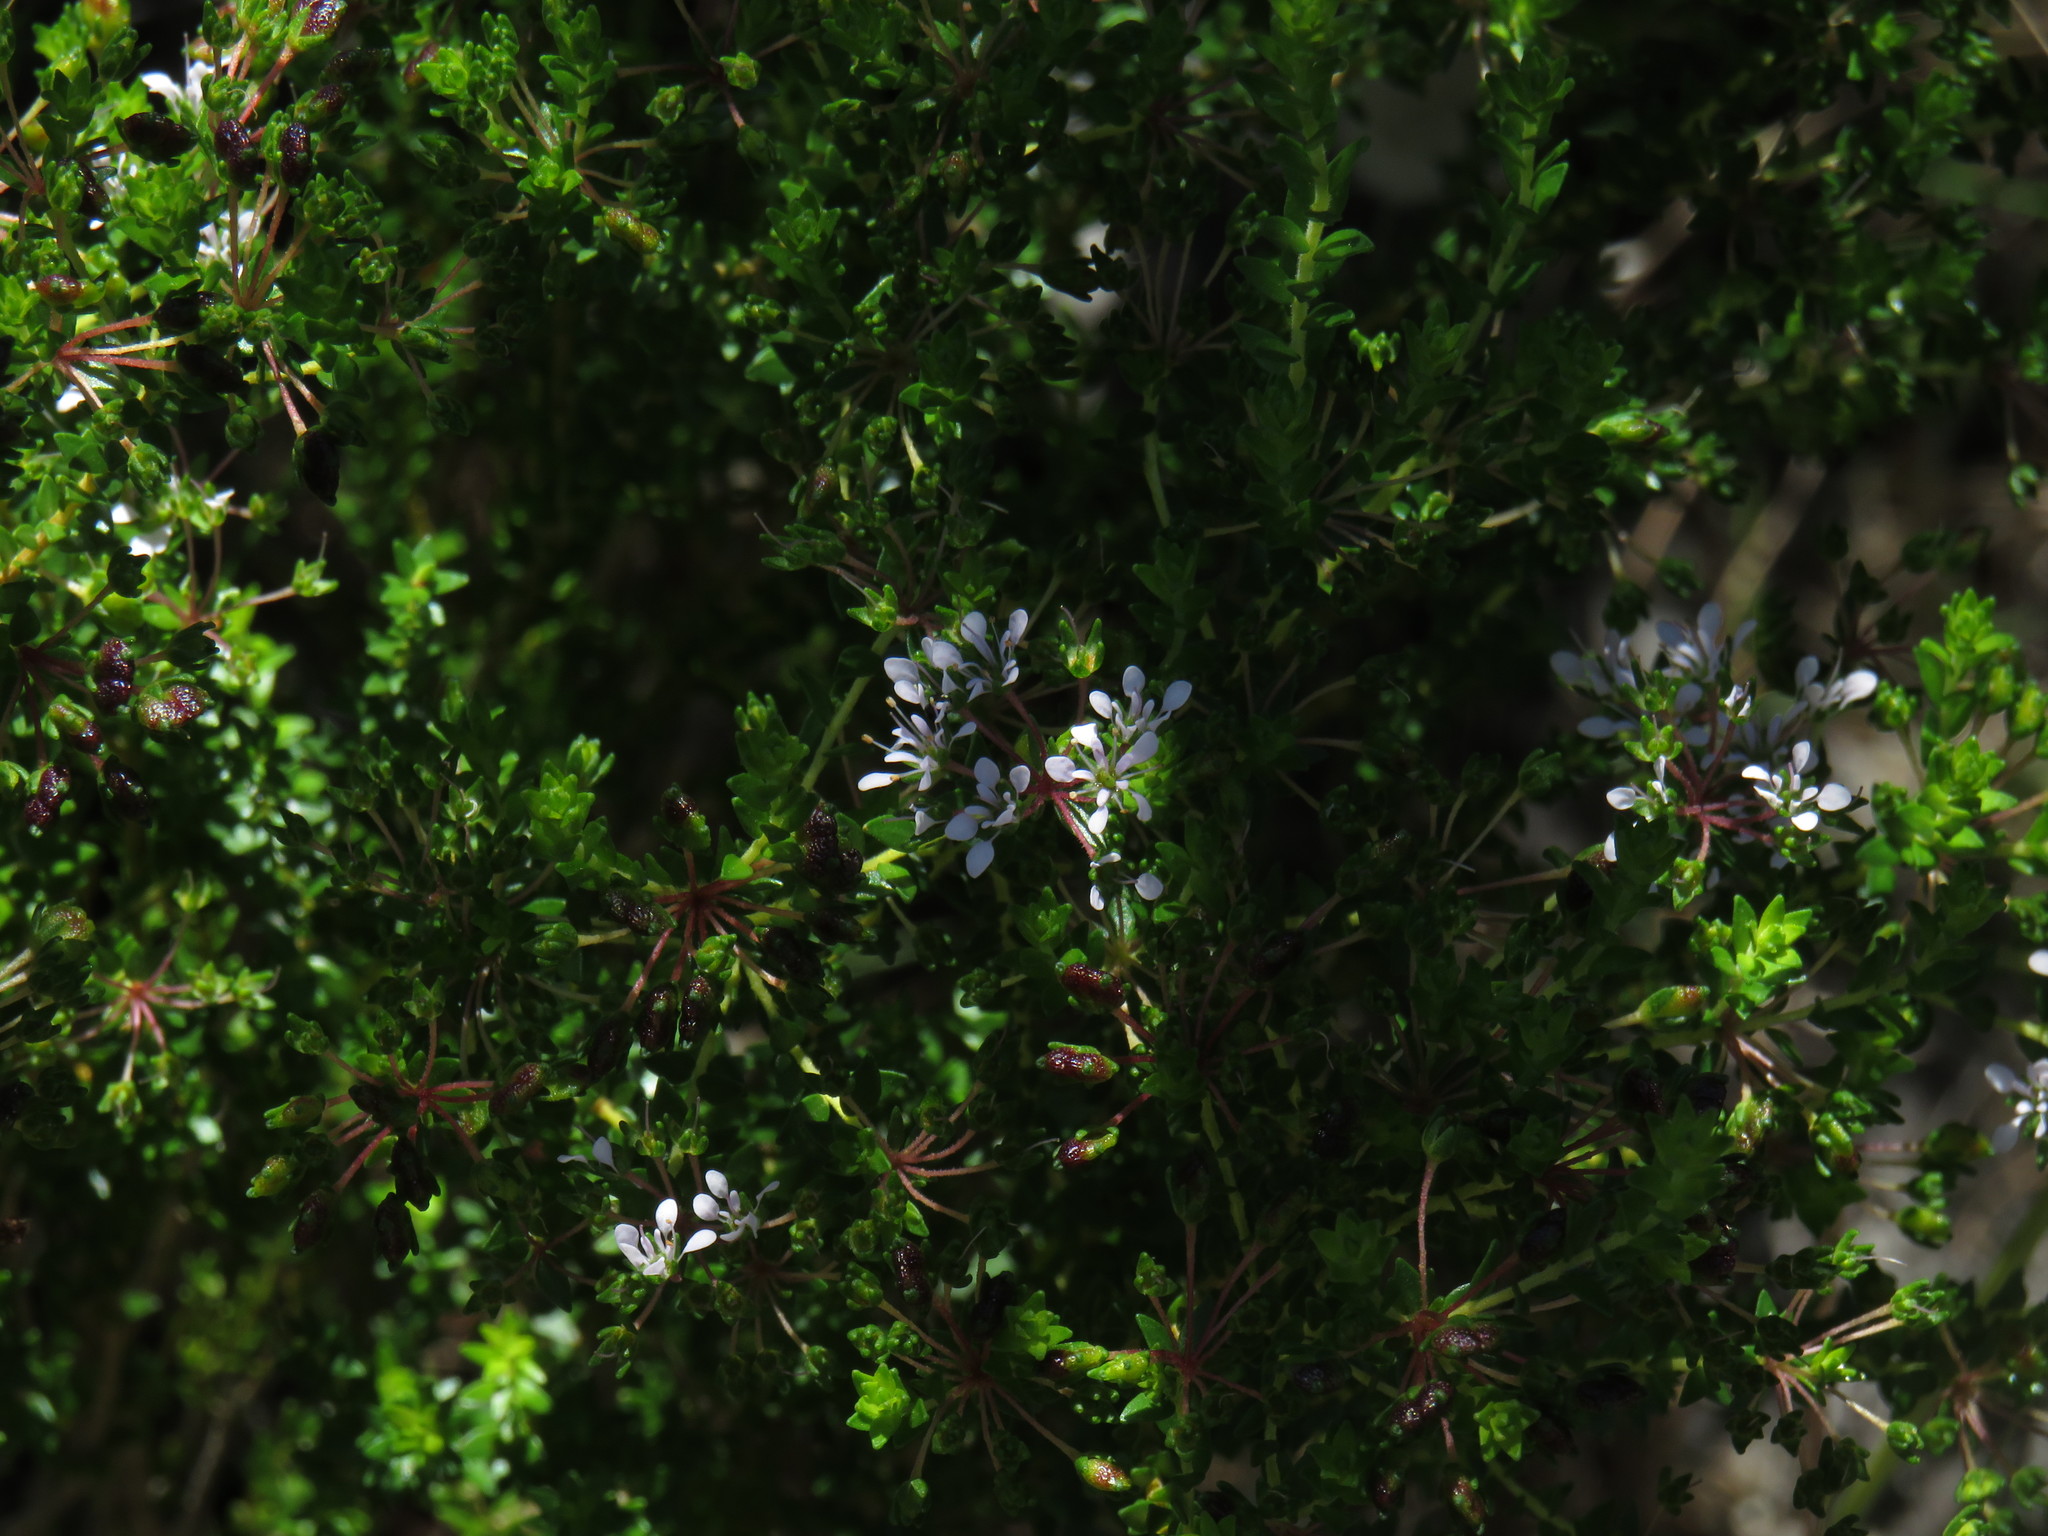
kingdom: Plantae
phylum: Tracheophyta
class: Magnoliopsida
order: Sapindales
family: Rutaceae
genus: Agathosma
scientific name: Agathosma glabrata
